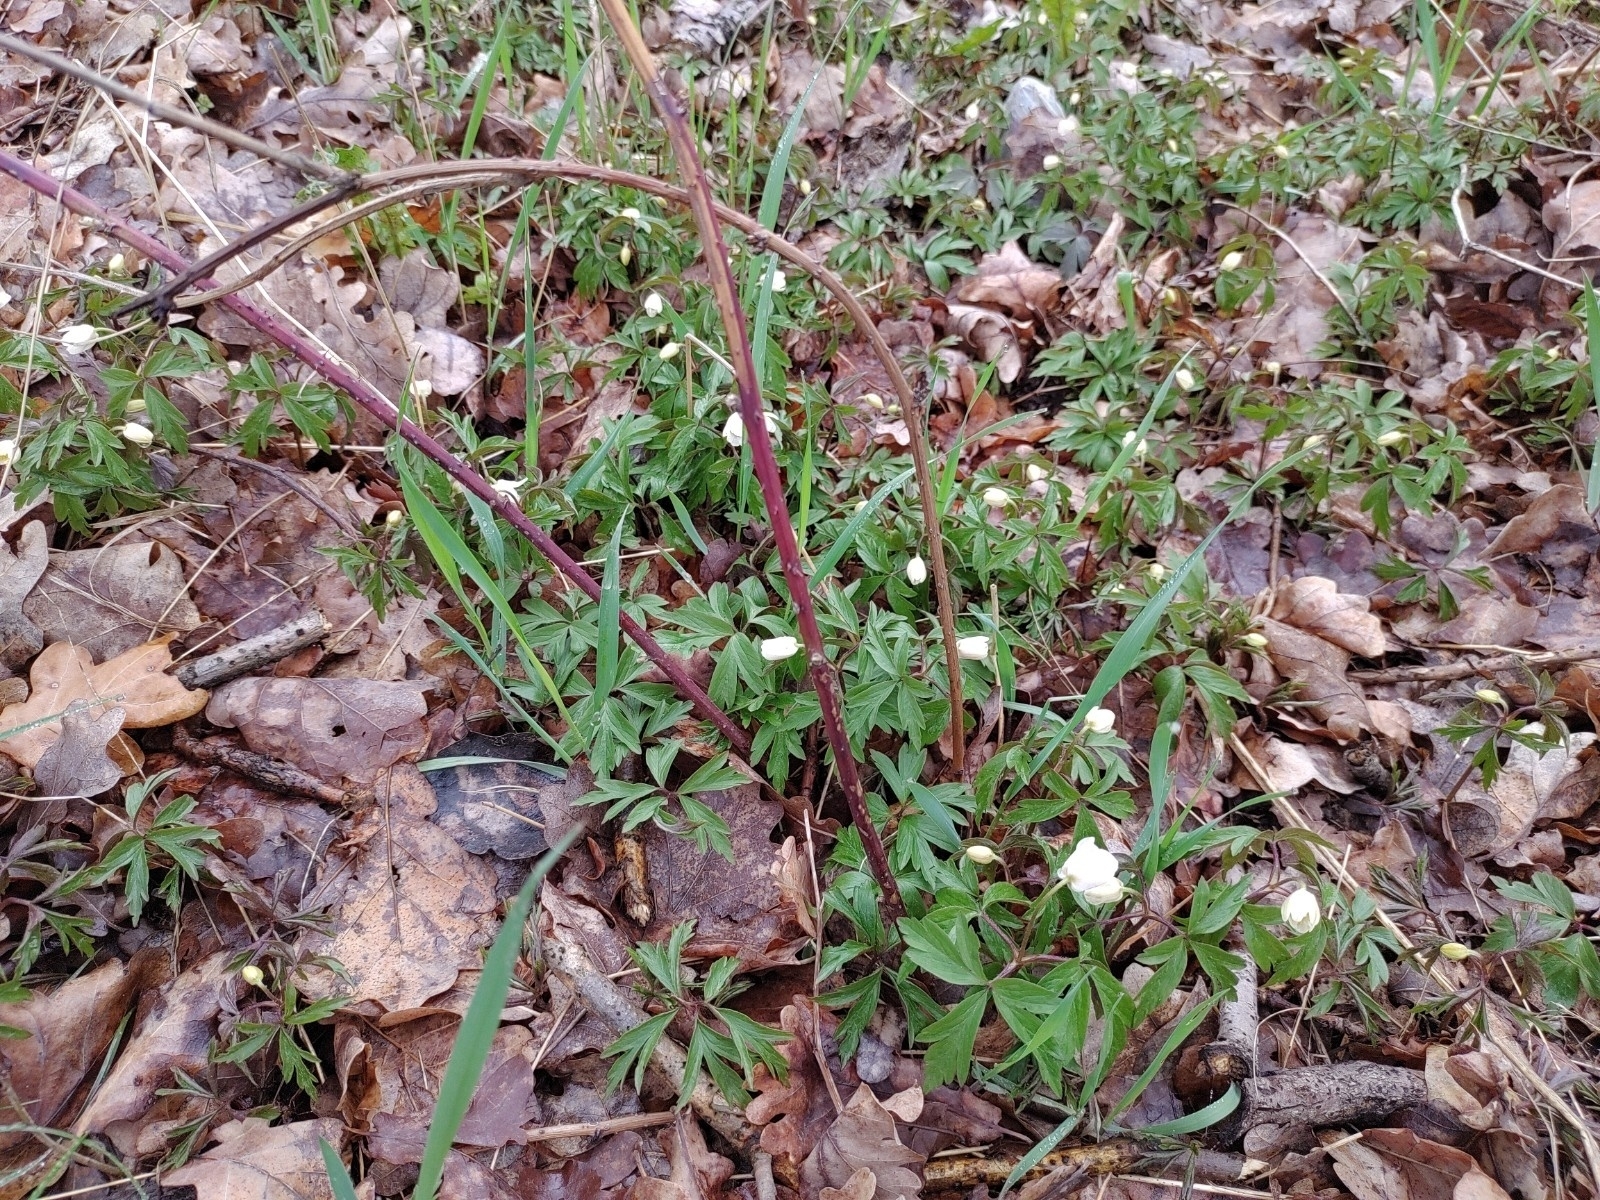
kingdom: Plantae
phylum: Tracheophyta
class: Magnoliopsida
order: Ranunculales
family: Ranunculaceae
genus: Anemone
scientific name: Anemone nemorosa
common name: Wood anemone
